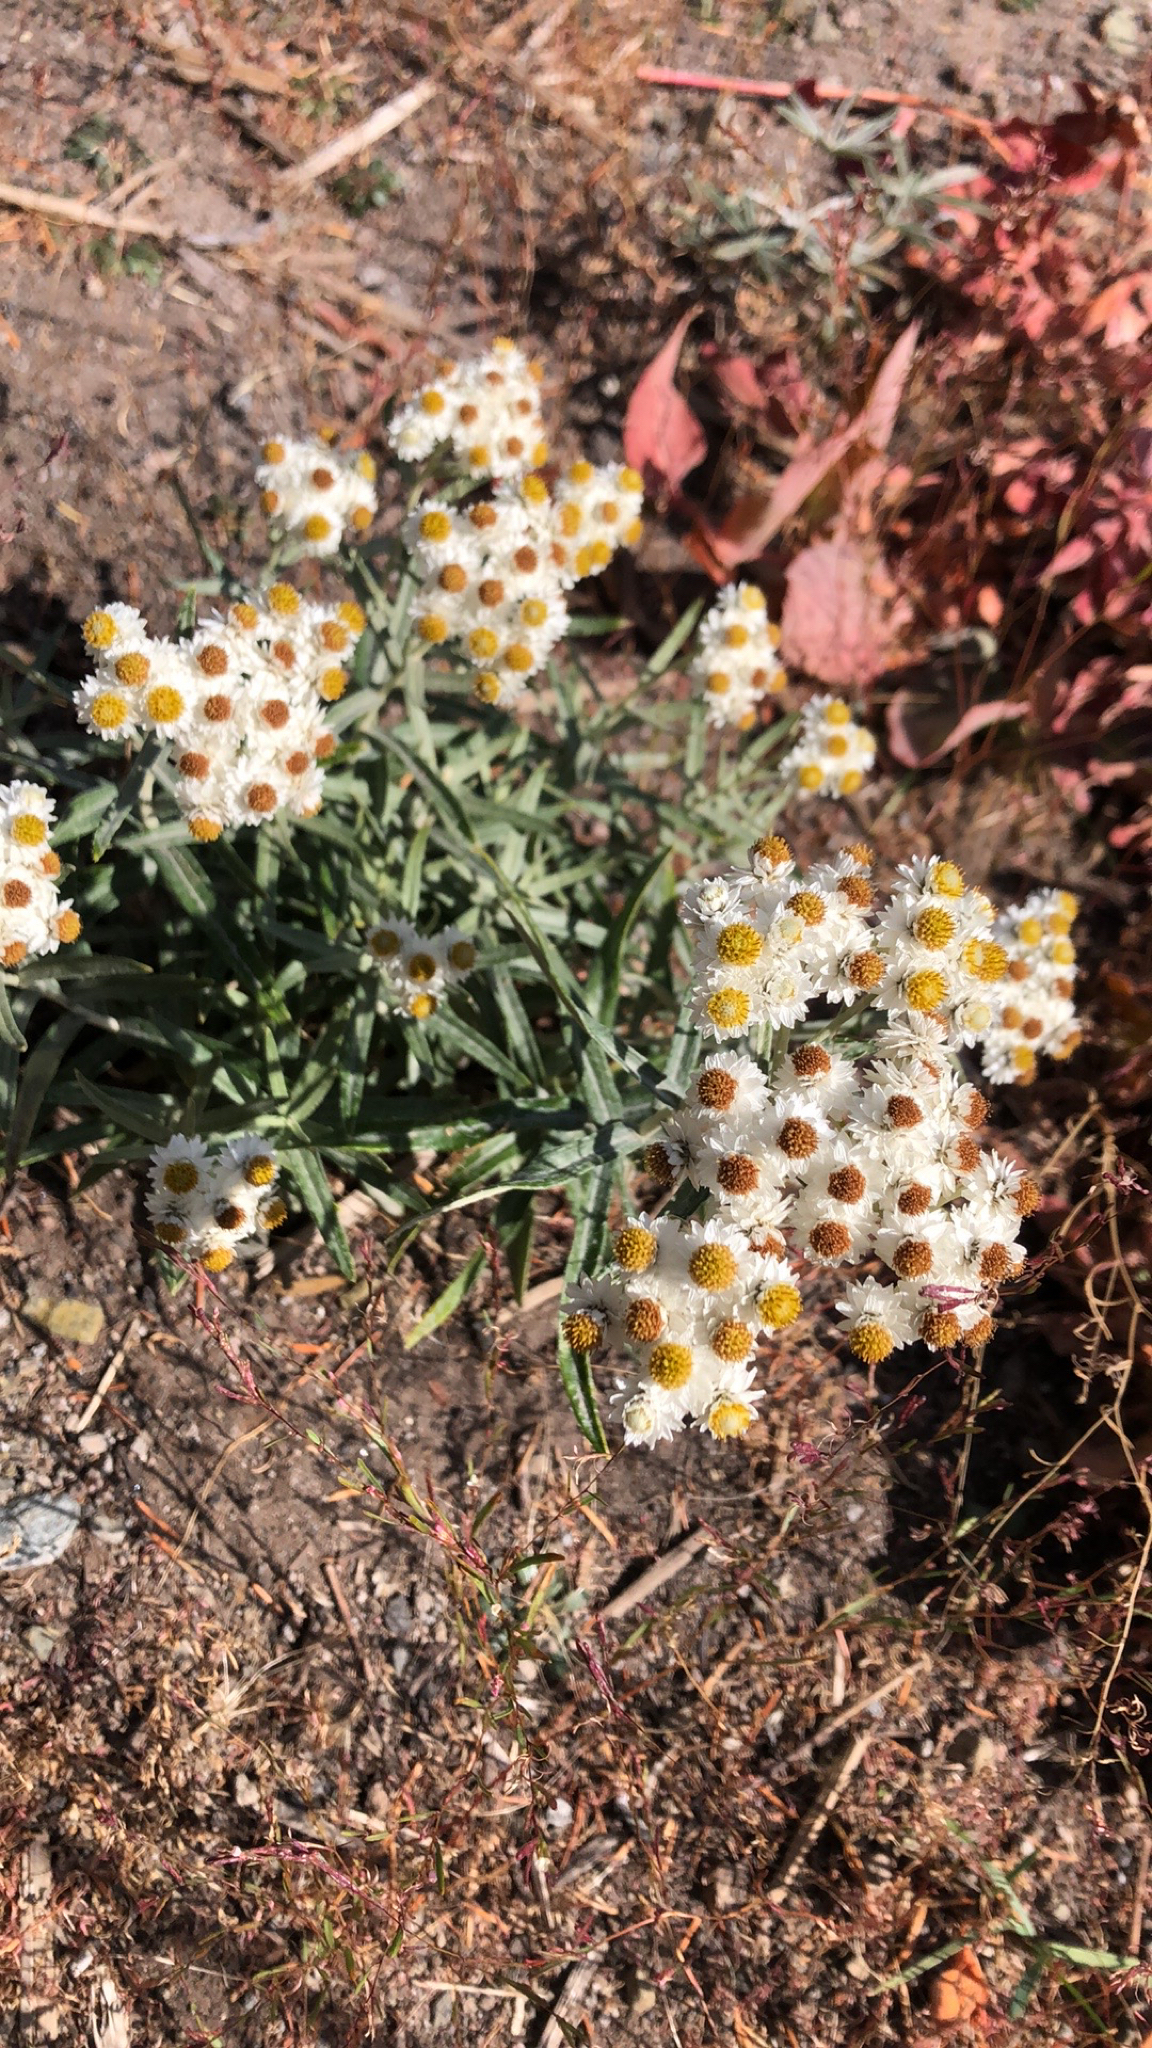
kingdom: Plantae
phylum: Tracheophyta
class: Magnoliopsida
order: Asterales
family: Asteraceae
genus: Anaphalis
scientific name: Anaphalis margaritacea
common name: Pearly everlasting
